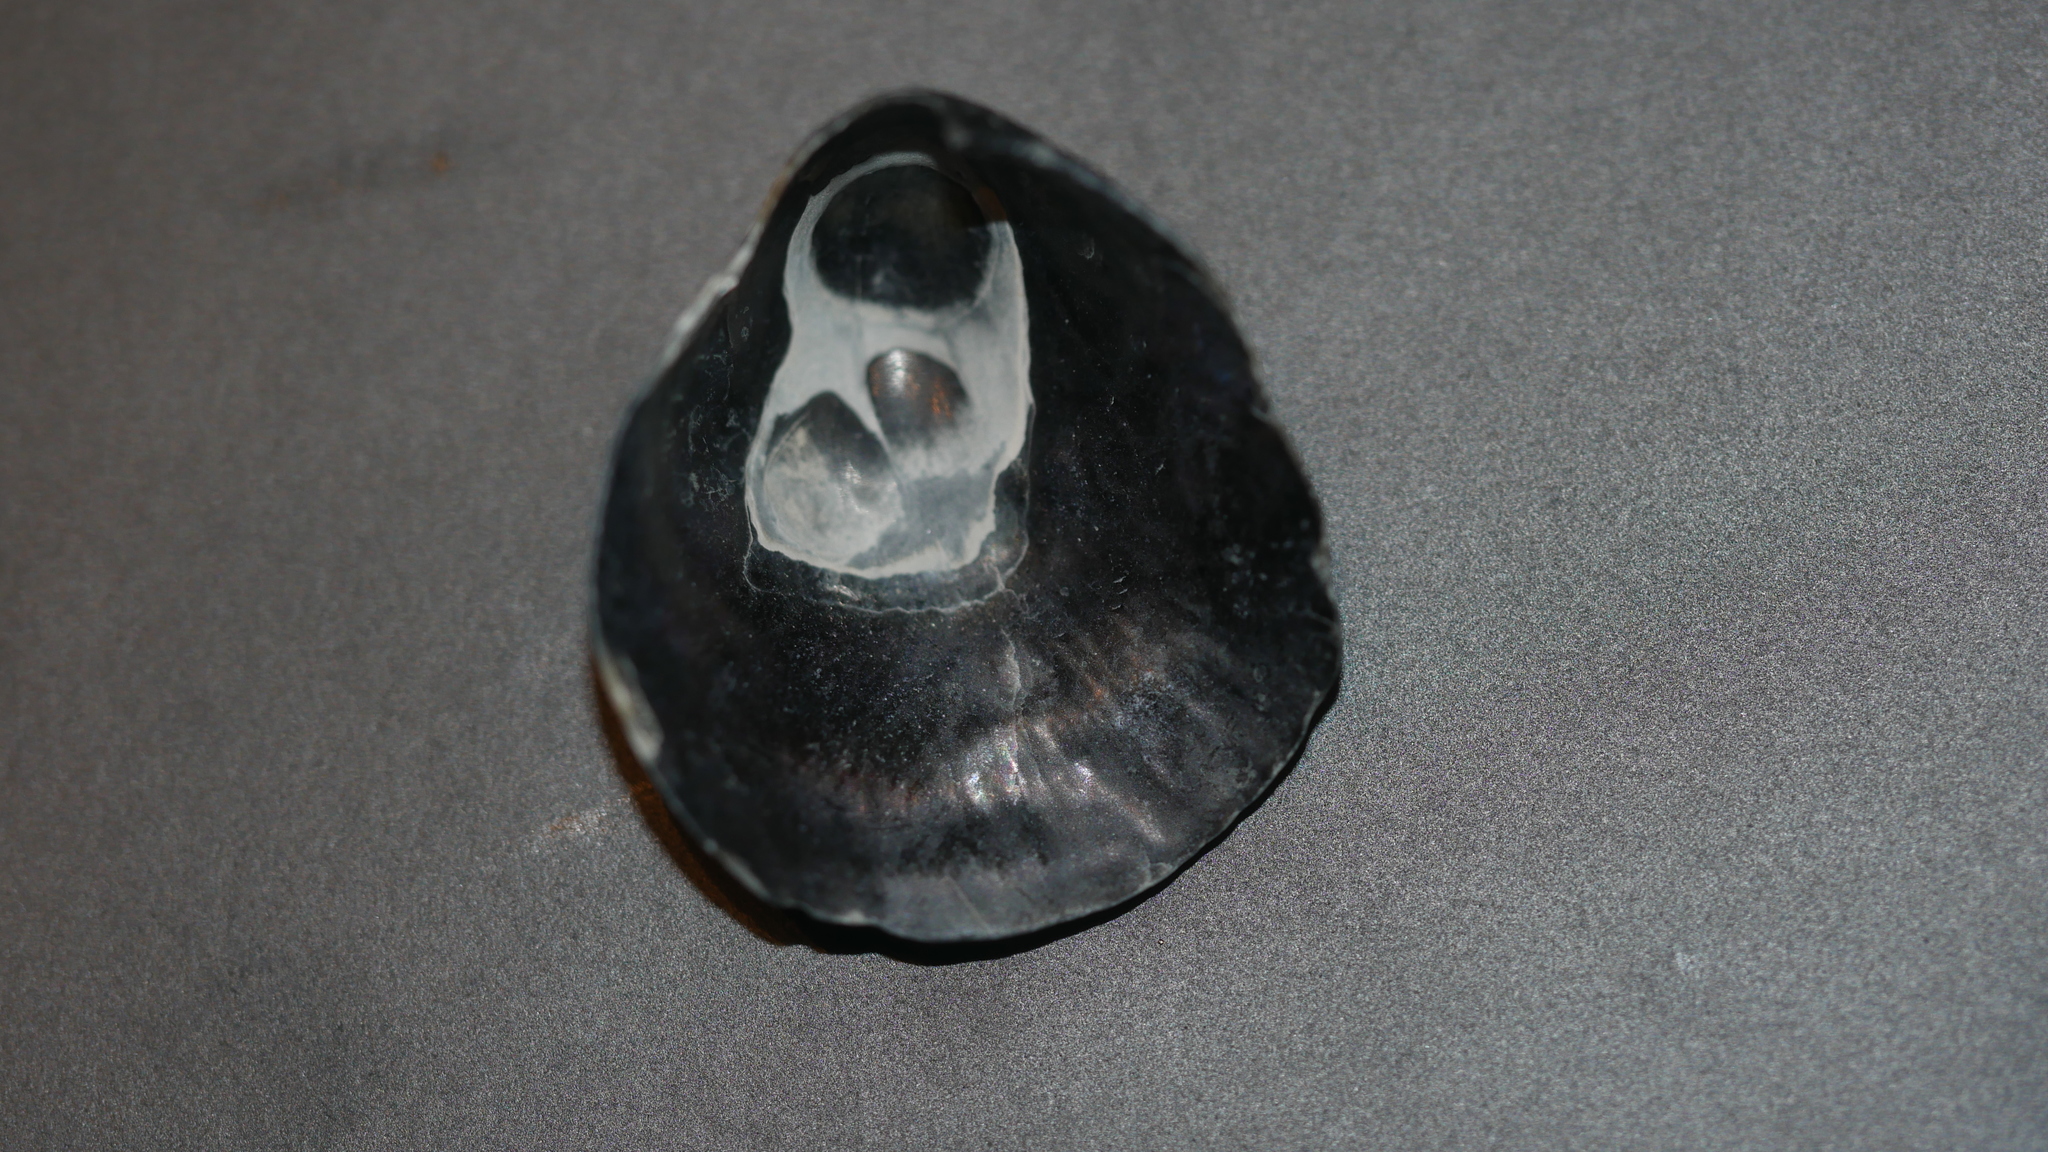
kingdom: Animalia
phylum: Mollusca
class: Bivalvia
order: Pectinida
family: Anomiidae
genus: Anomia
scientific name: Anomia simplex
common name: Common jingle shell
